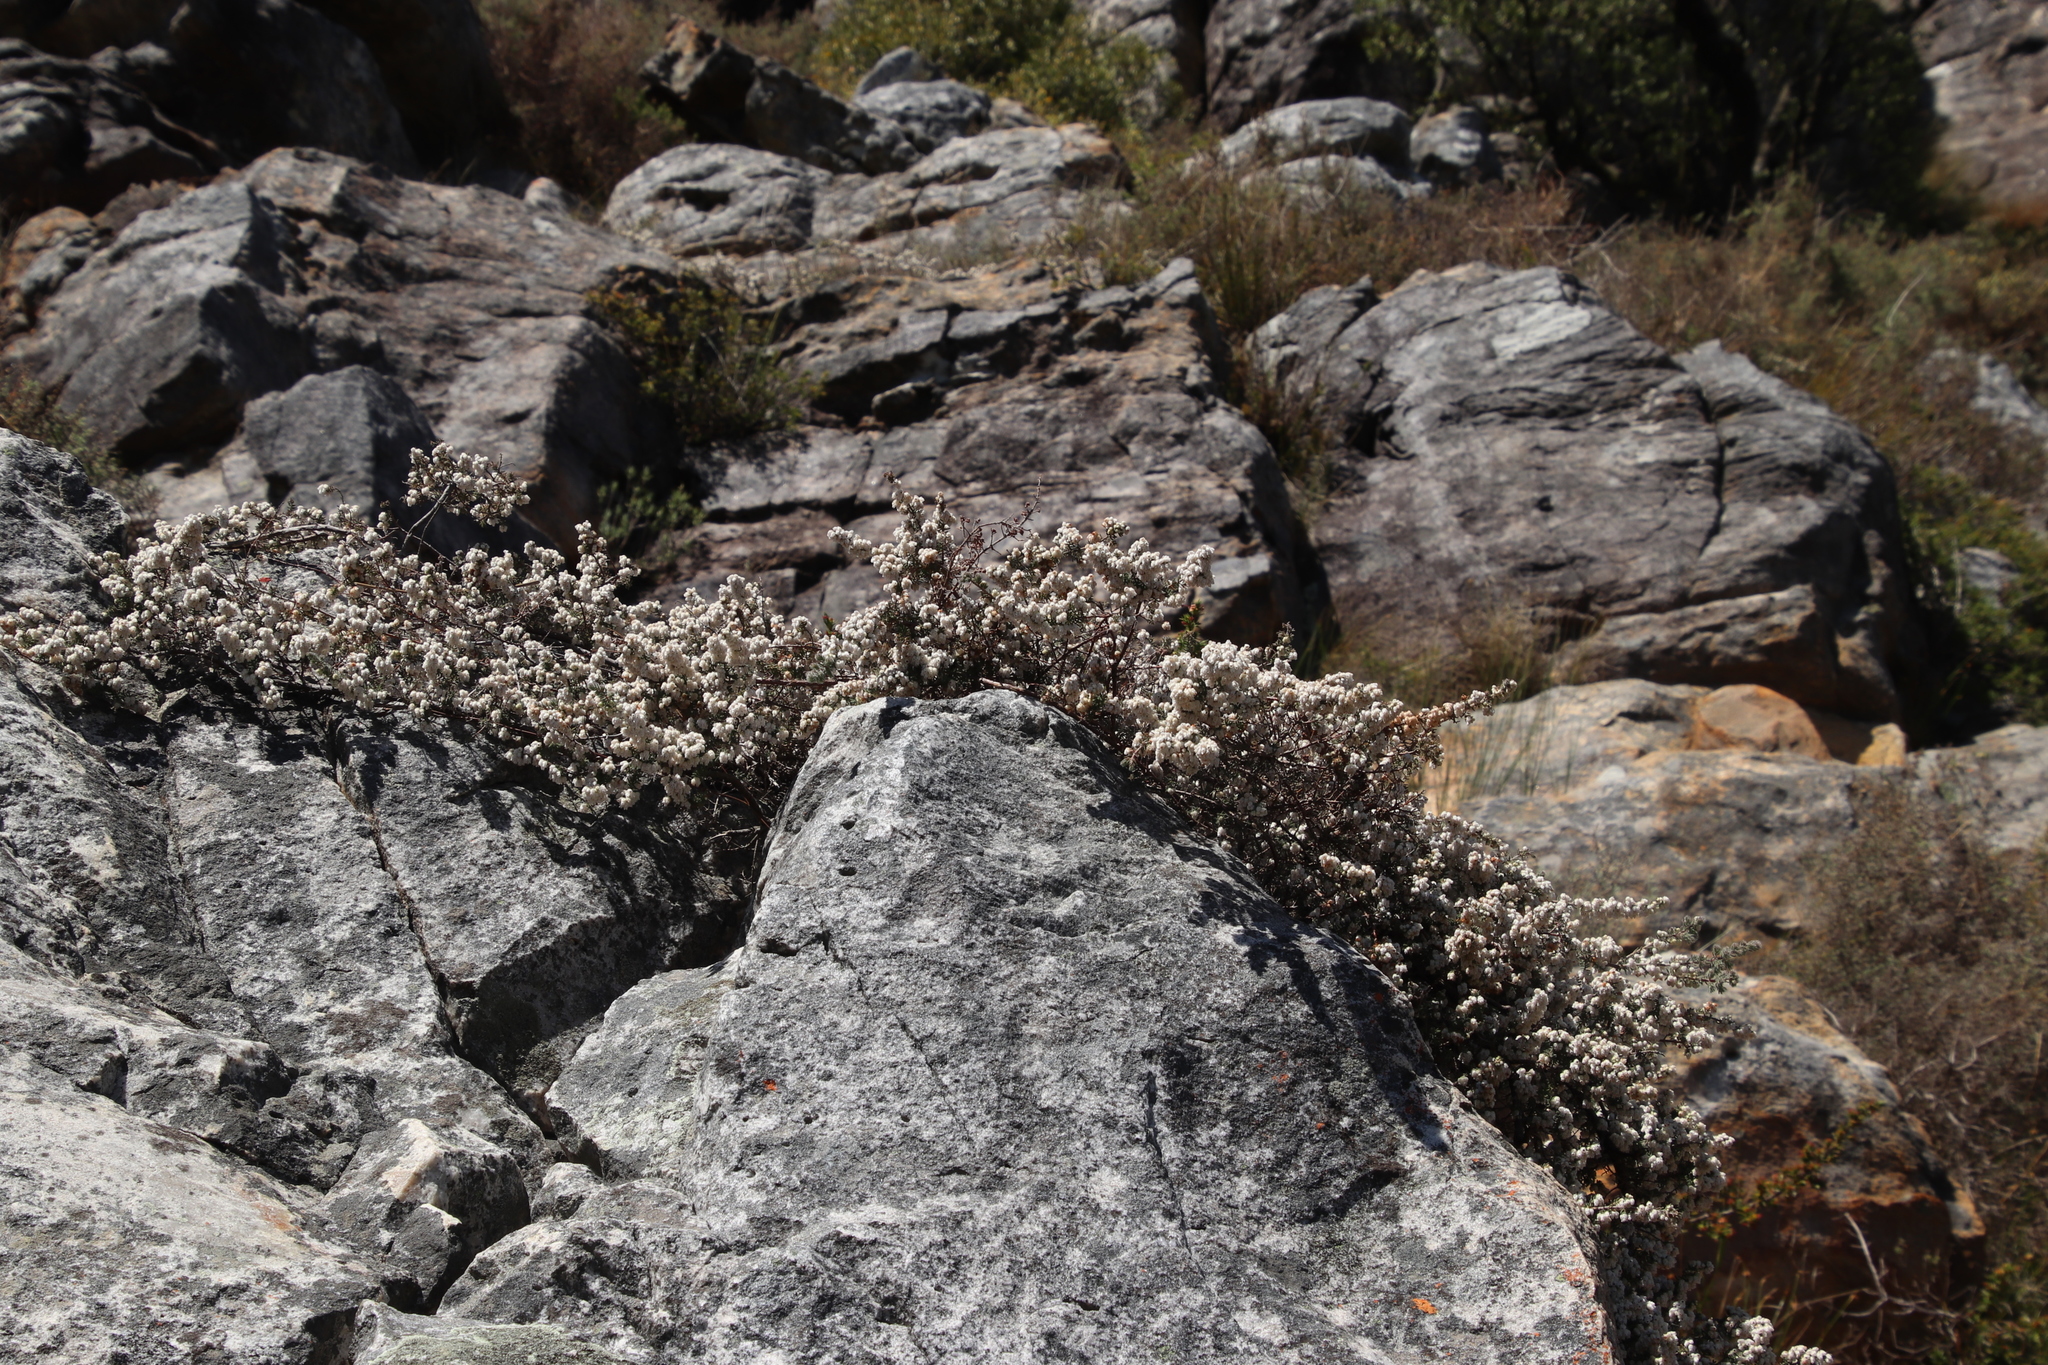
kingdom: Plantae
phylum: Tracheophyta
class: Magnoliopsida
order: Ericales
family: Ericaceae
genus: Erica
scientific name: Erica totta
